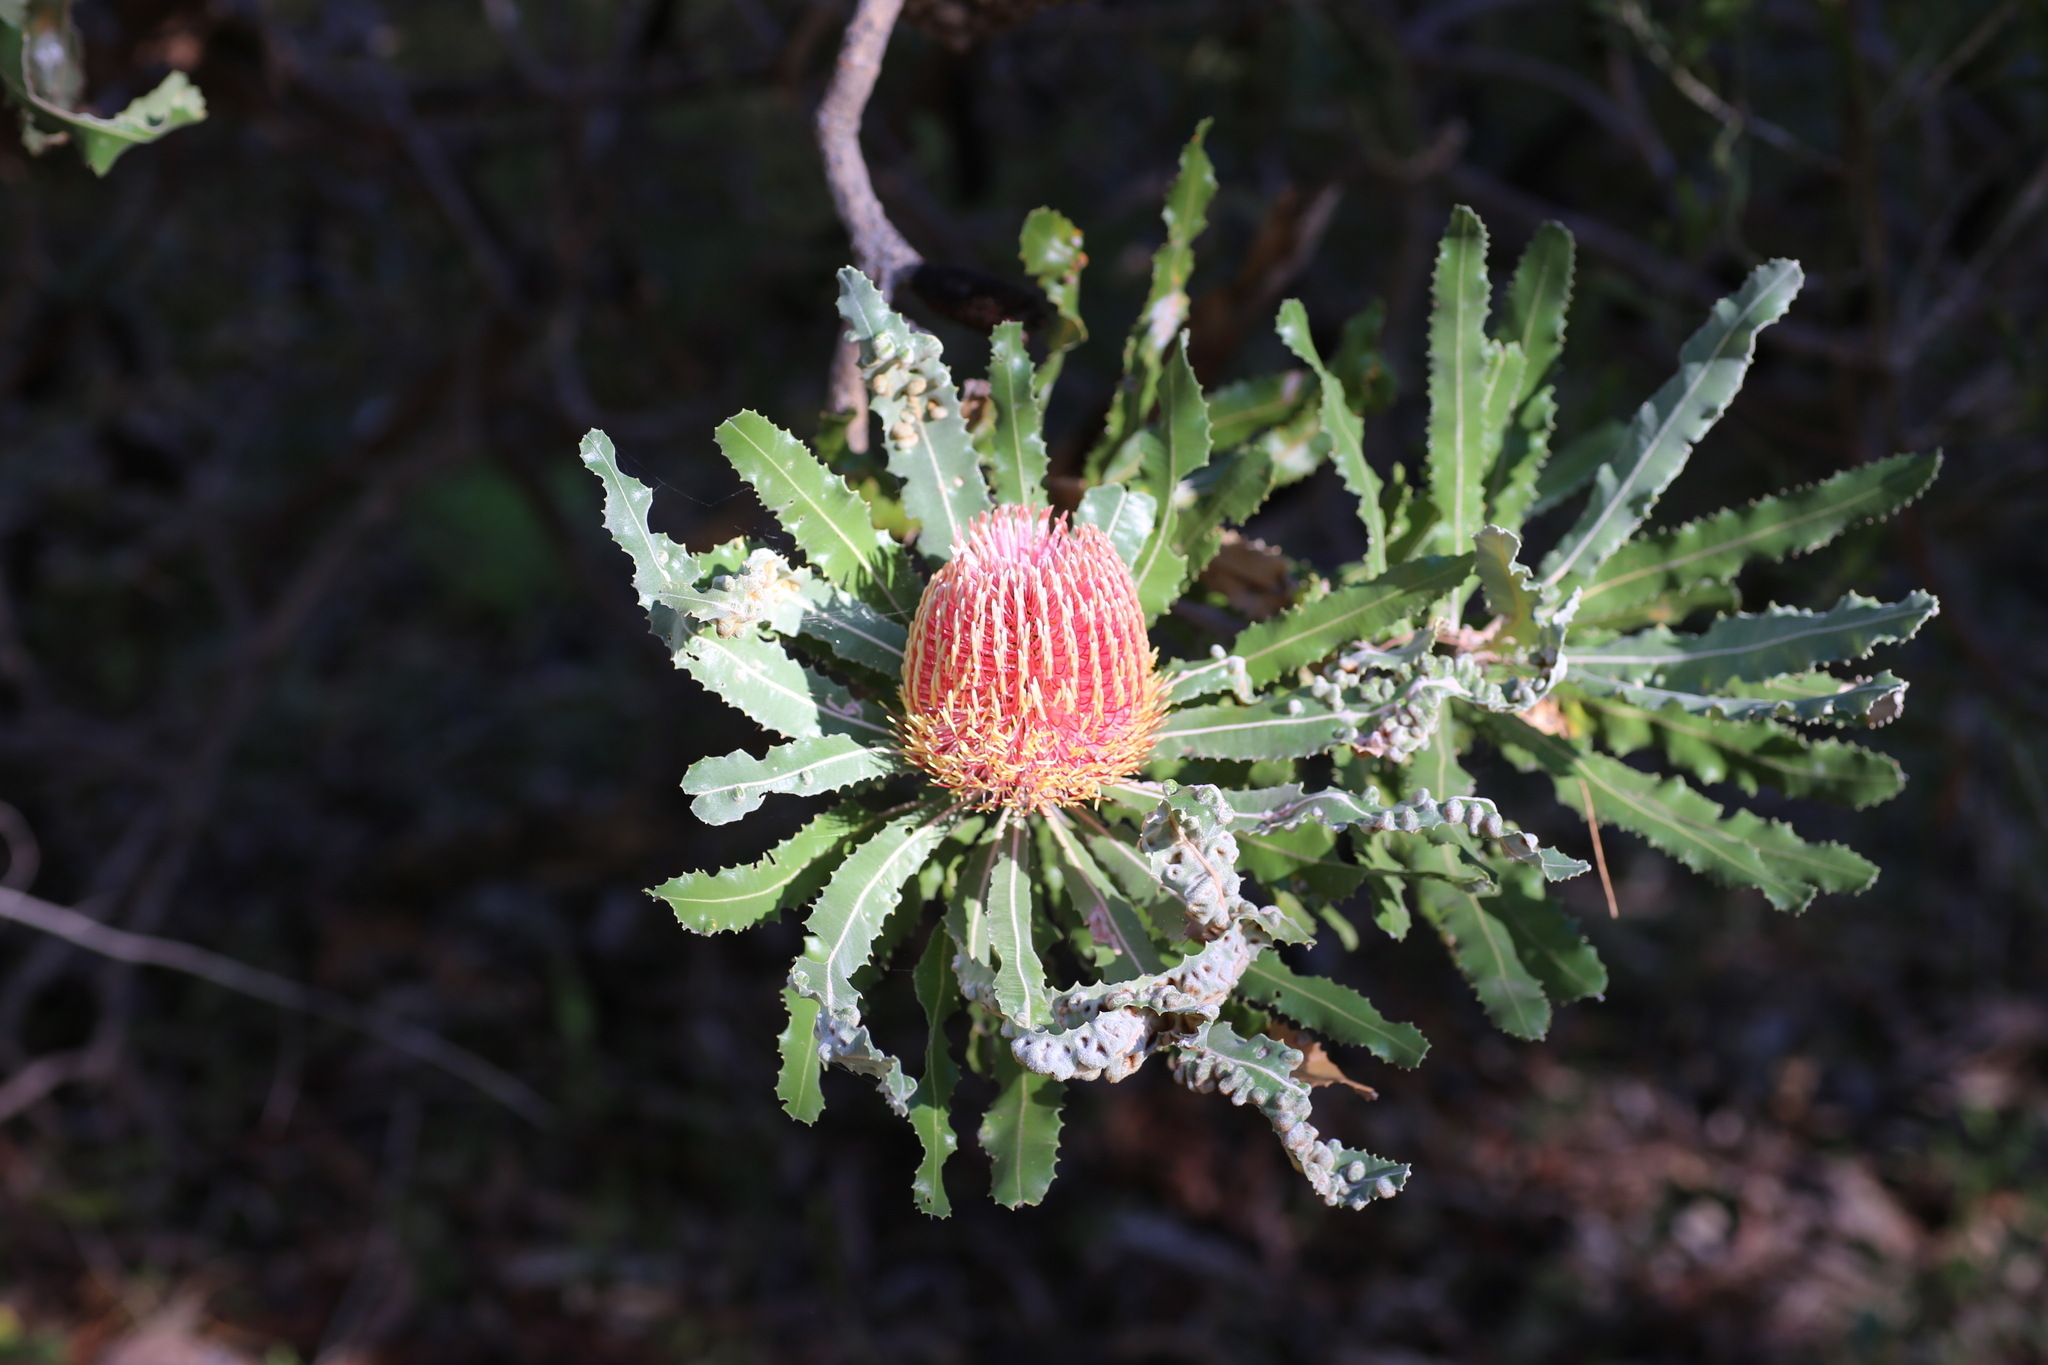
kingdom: Plantae
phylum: Tracheophyta
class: Magnoliopsida
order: Proteales
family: Proteaceae
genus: Banksia
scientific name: Banksia menziesii
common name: Menzie's banksia
